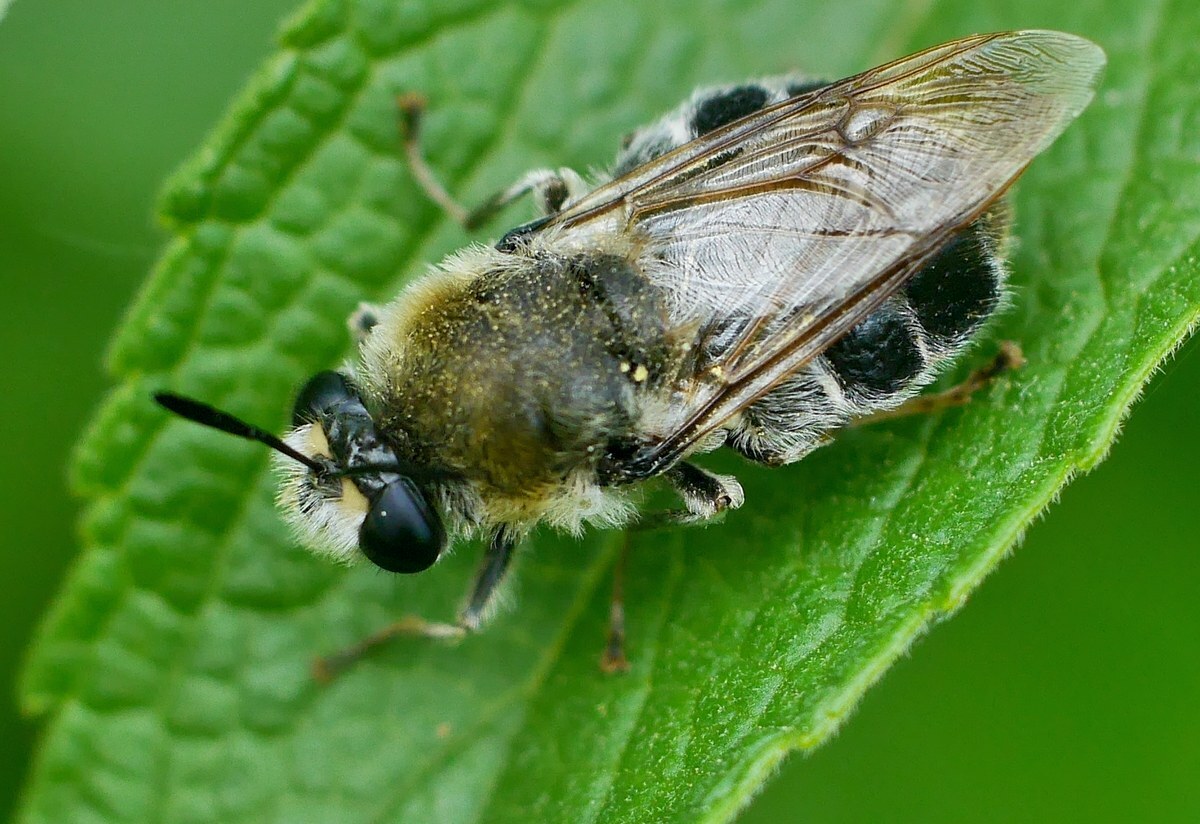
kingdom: Animalia
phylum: Arthropoda
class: Insecta
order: Diptera
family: Stratiomyidae
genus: Stratiomys
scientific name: Stratiomys longicornis
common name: Long-horned general
